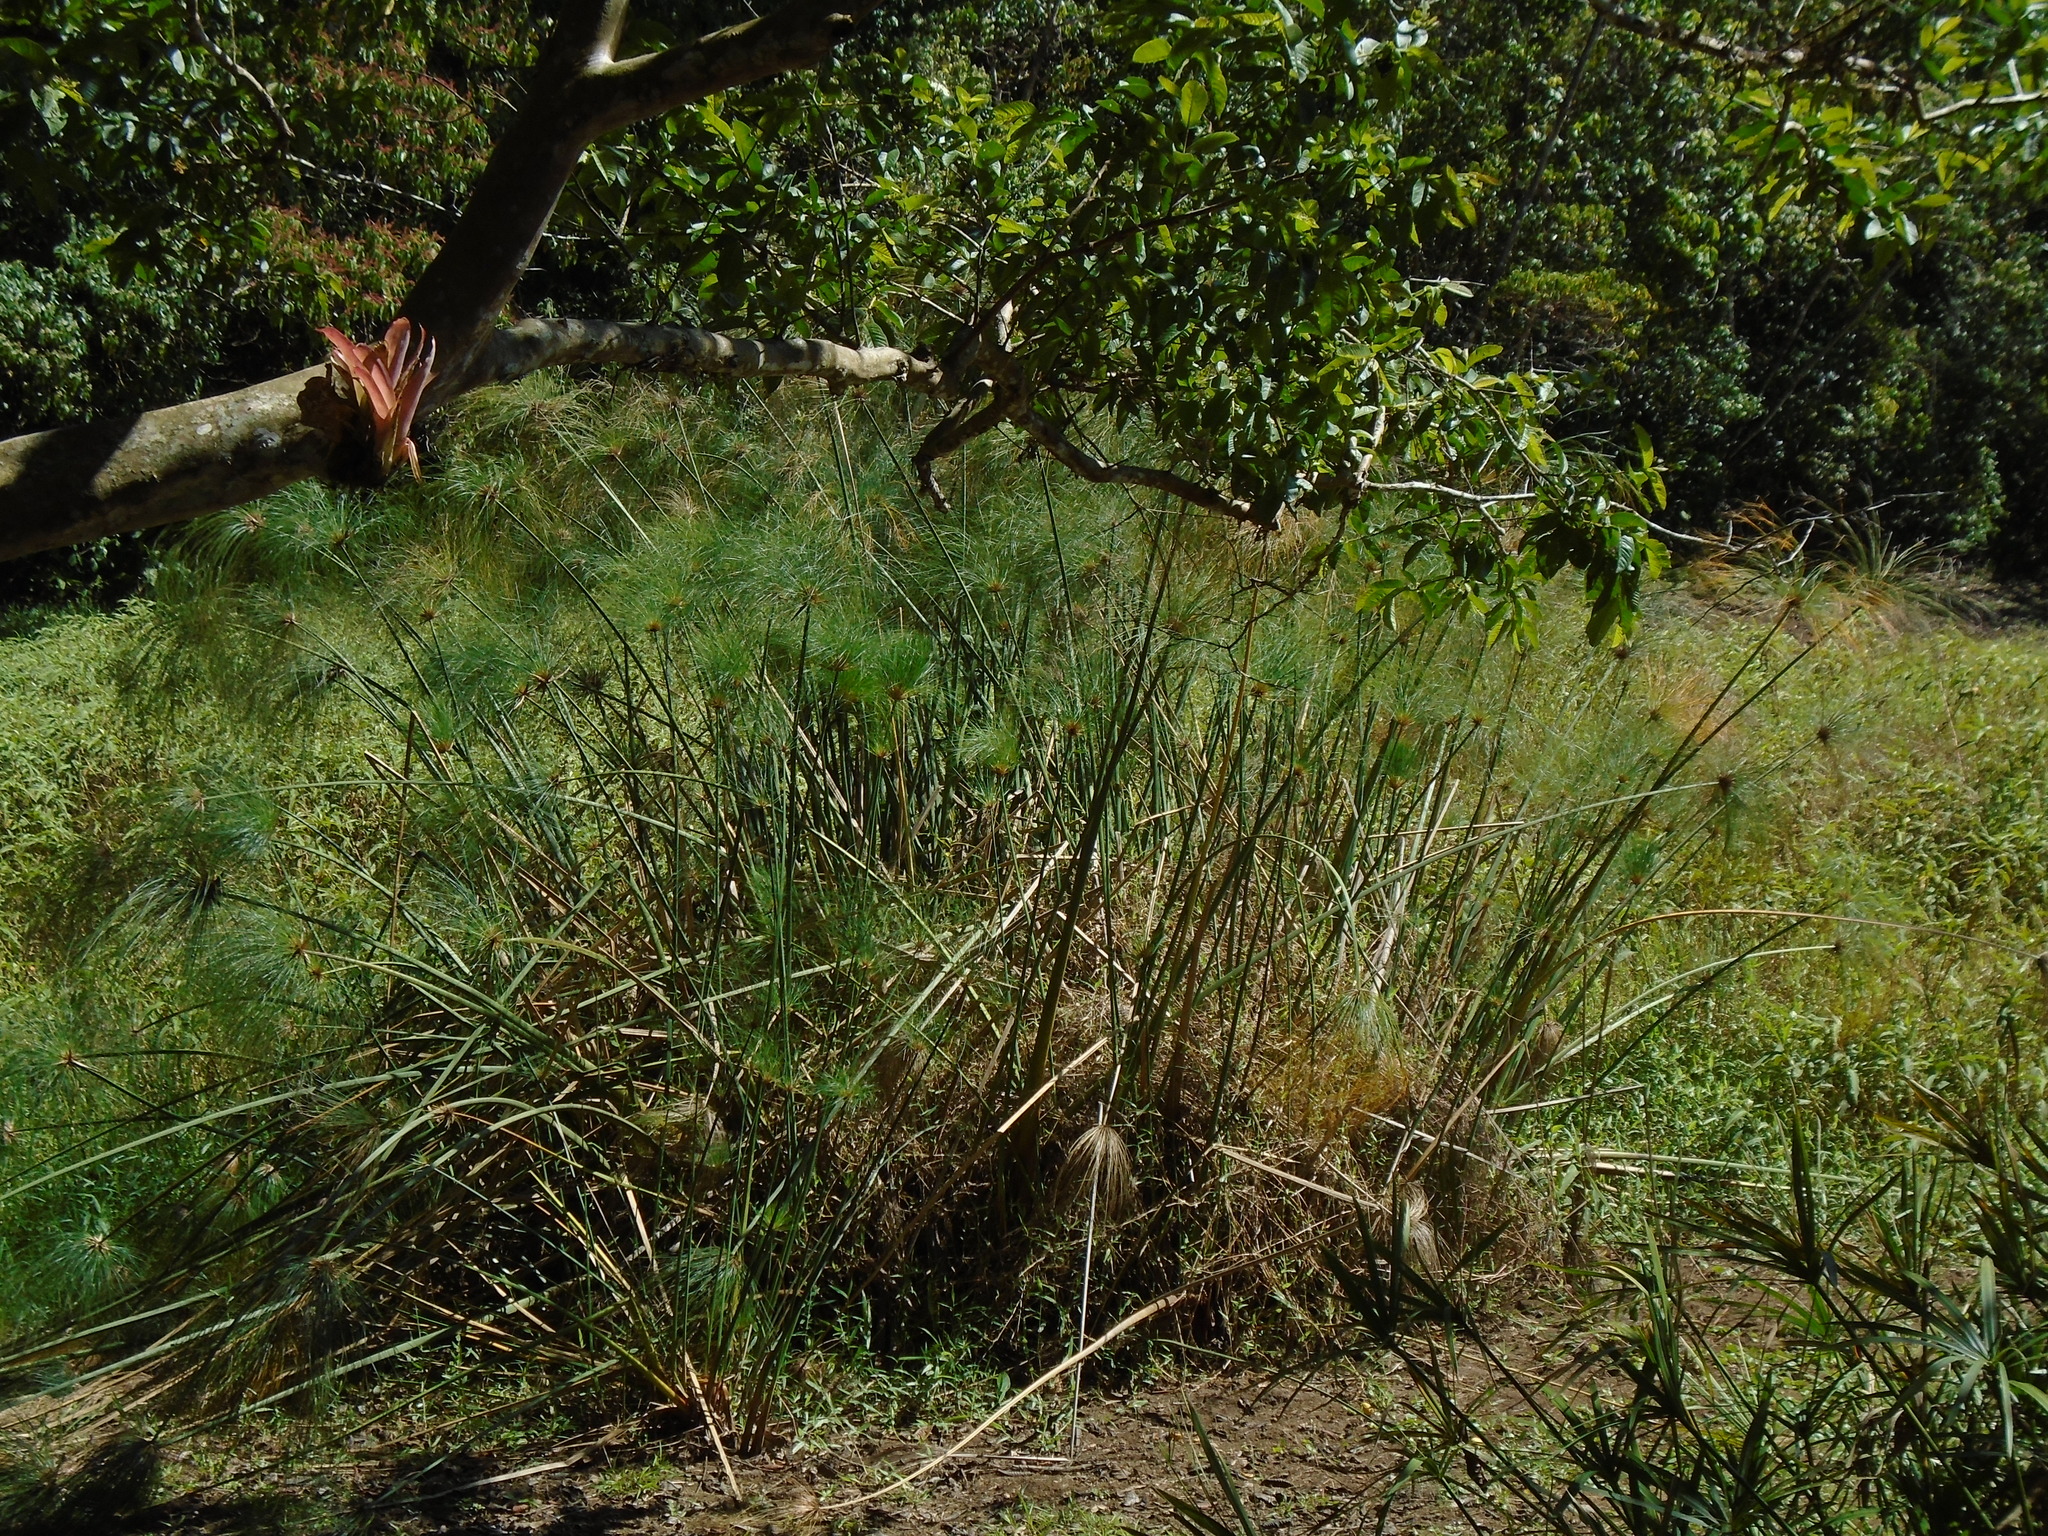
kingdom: Plantae
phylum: Tracheophyta
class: Liliopsida
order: Poales
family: Cyperaceae
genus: Cyperus
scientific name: Cyperus papyrus
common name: Papyrus
